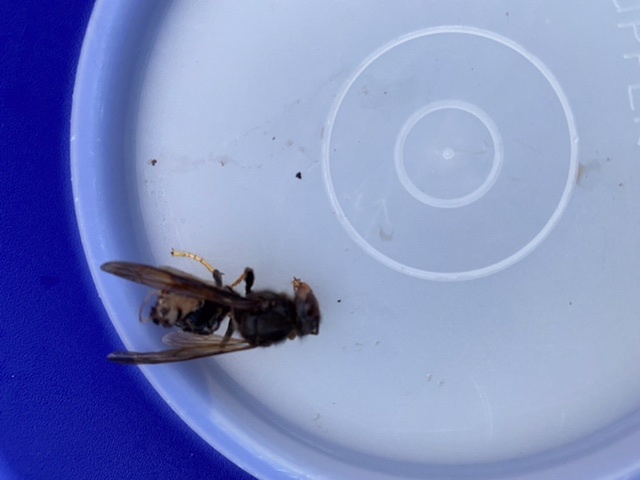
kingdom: Animalia
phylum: Arthropoda
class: Insecta
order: Hymenoptera
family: Vespidae
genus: Vespa
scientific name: Vespa velutina
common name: Asian hornet
